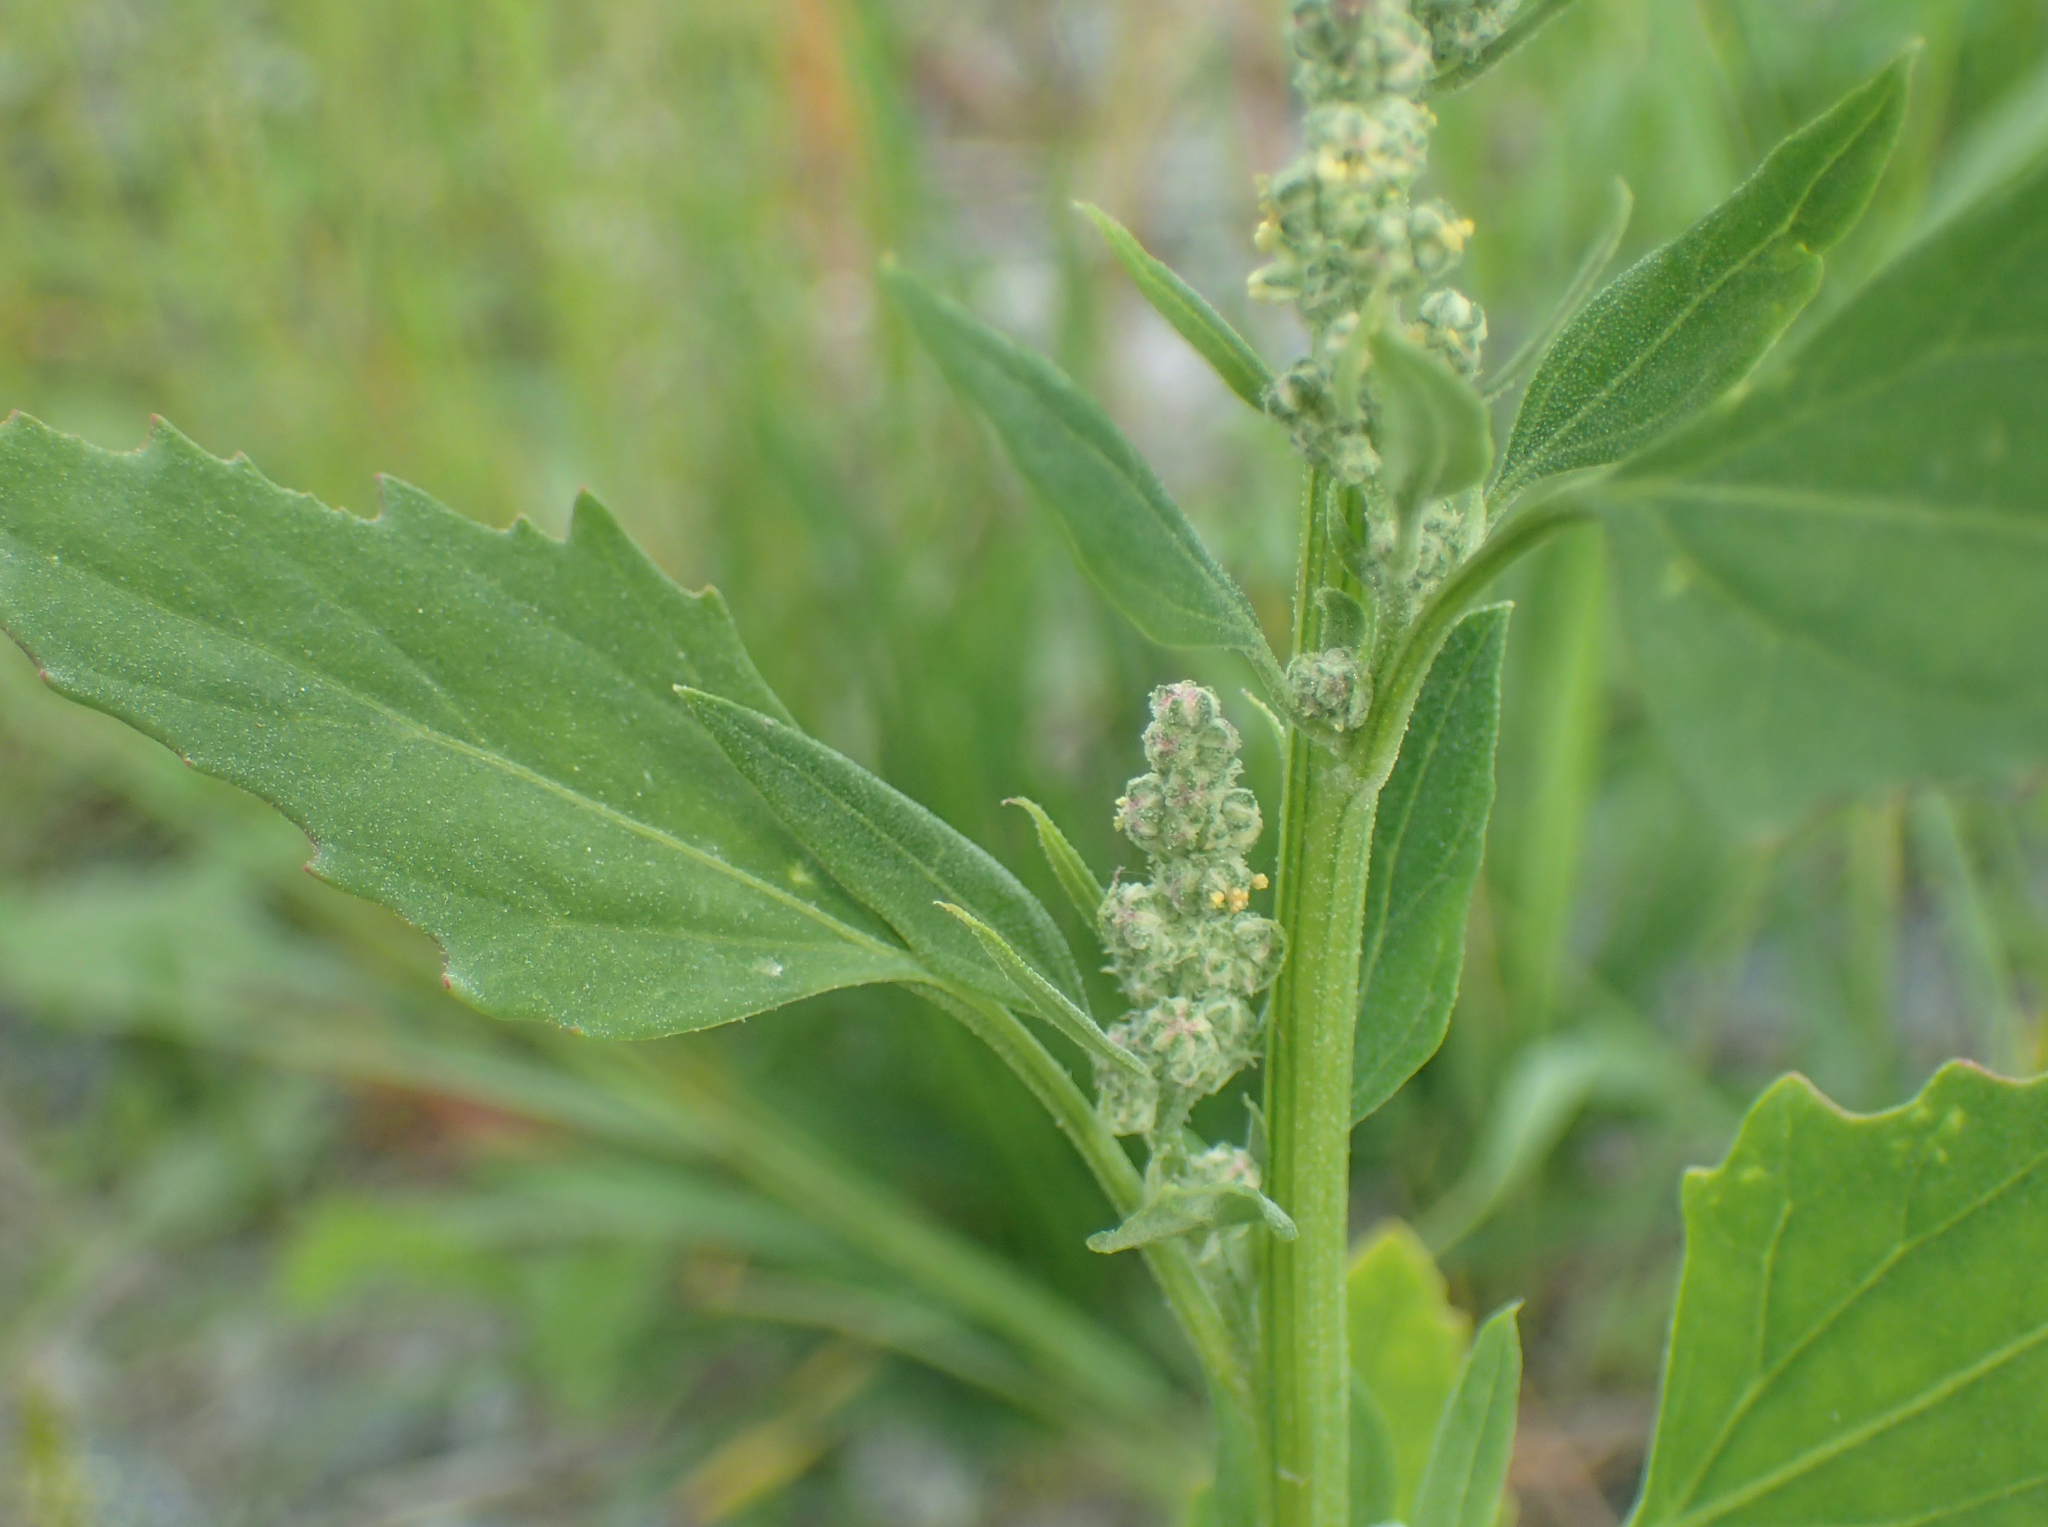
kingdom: Plantae
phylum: Tracheophyta
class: Magnoliopsida
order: Caryophyllales
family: Amaranthaceae
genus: Chenopodium
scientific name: Chenopodium album
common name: Fat-hen
